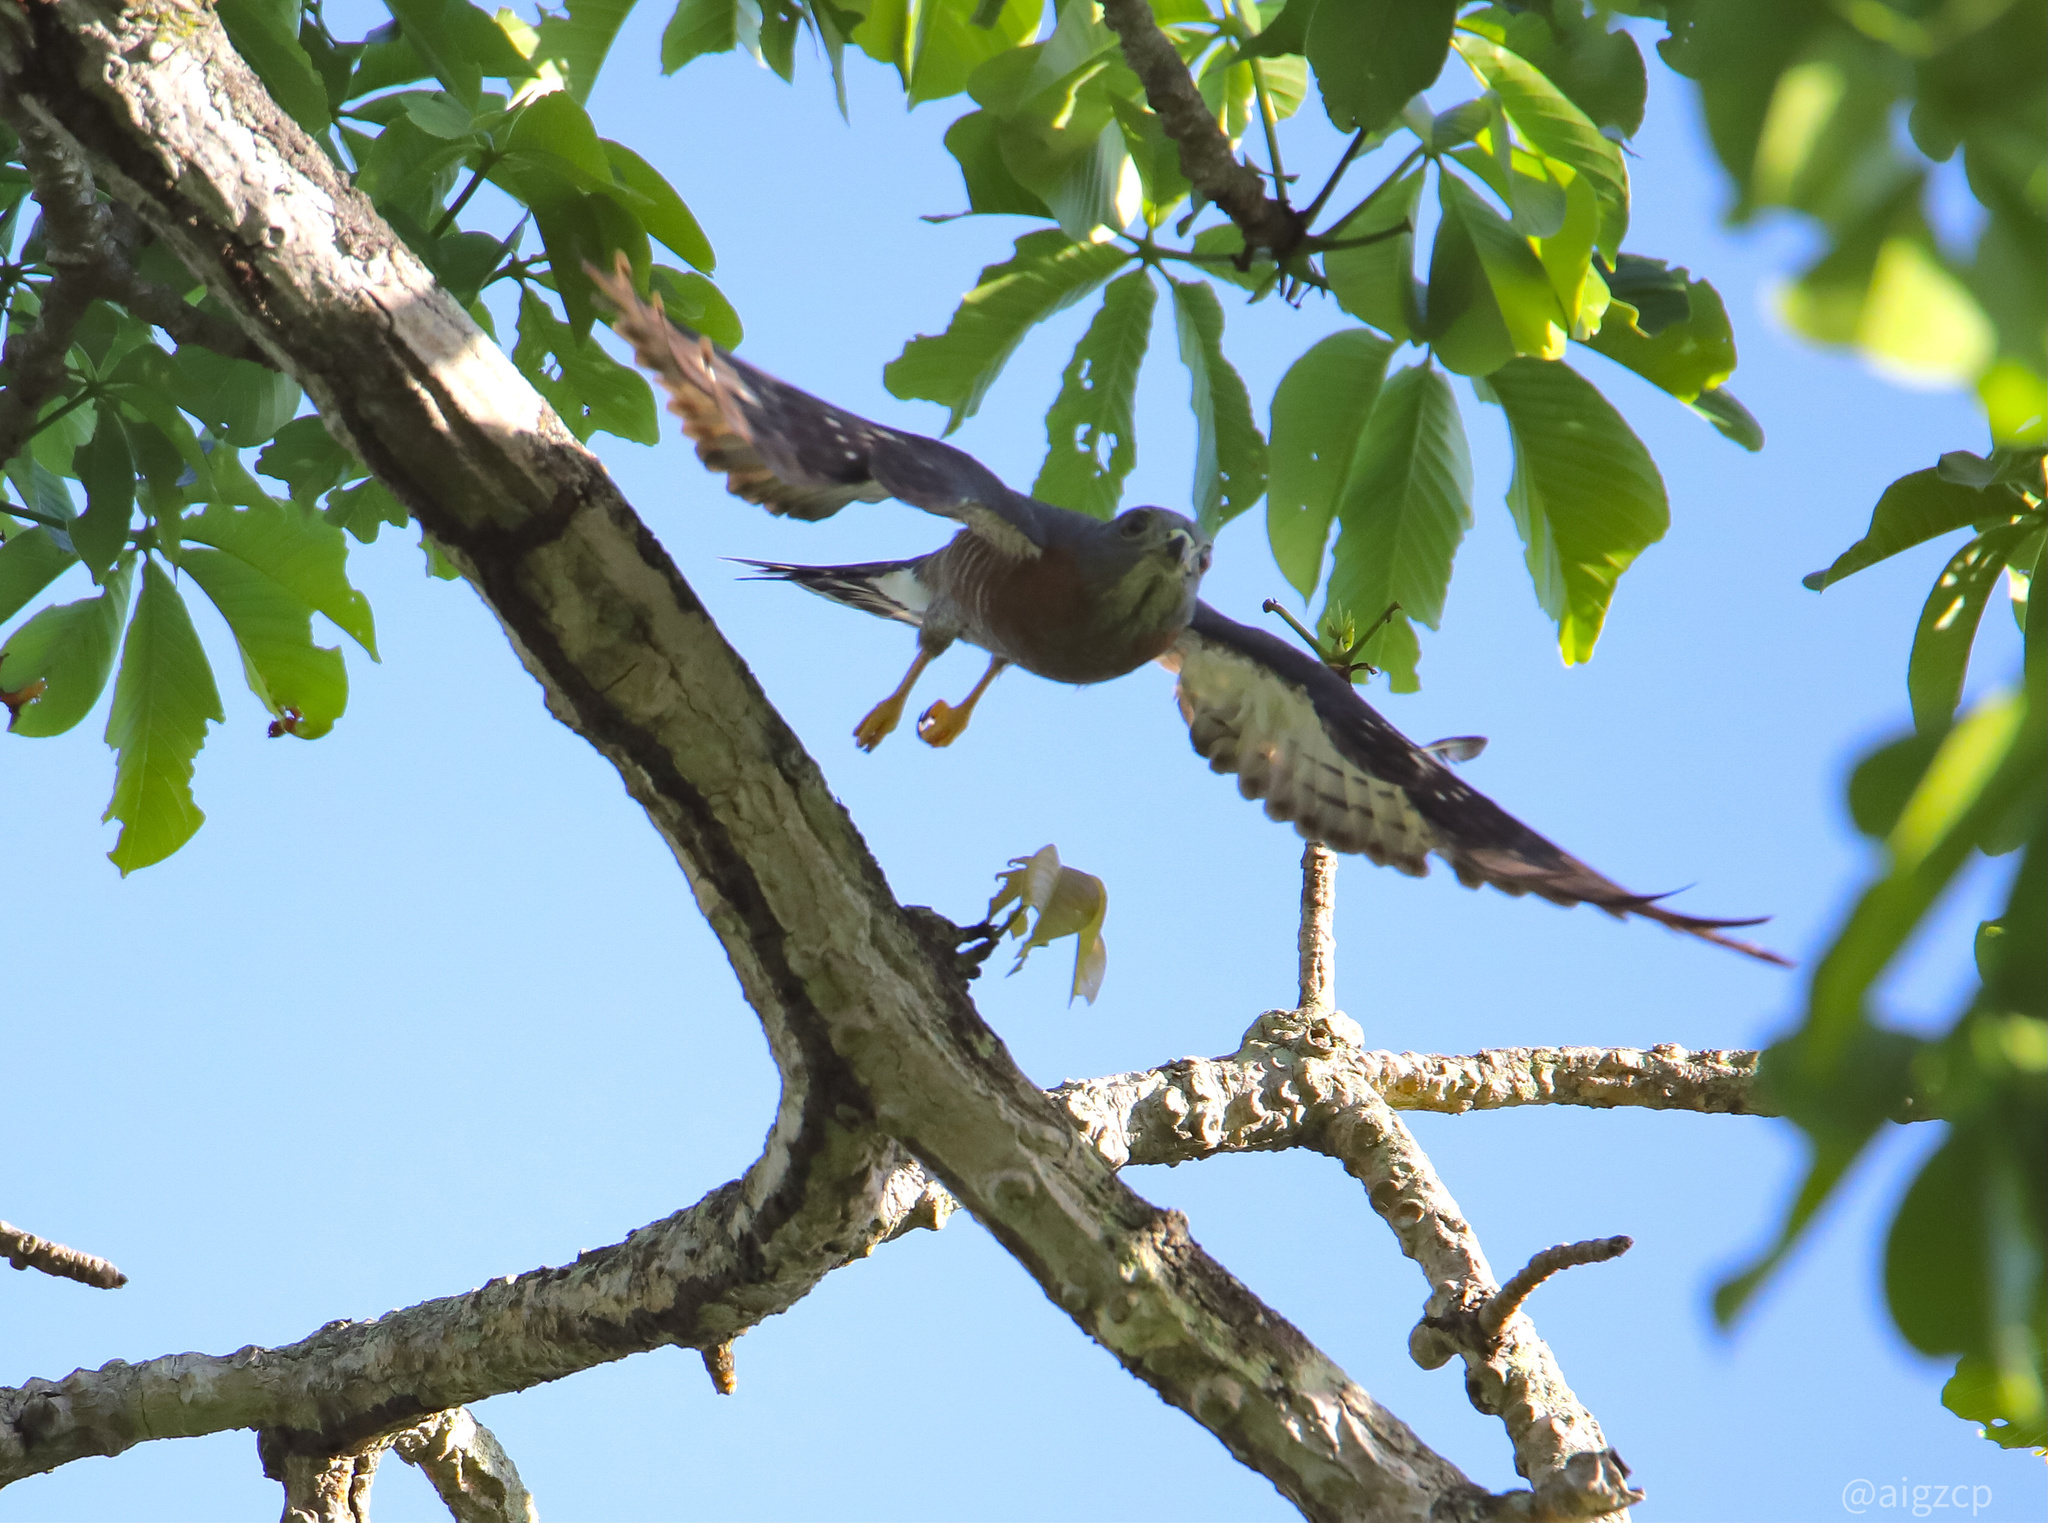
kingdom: Animalia
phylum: Chordata
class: Aves
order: Accipitriformes
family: Accipitridae
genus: Harpagus
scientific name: Harpagus bidentatus
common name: Double-toothed kite
